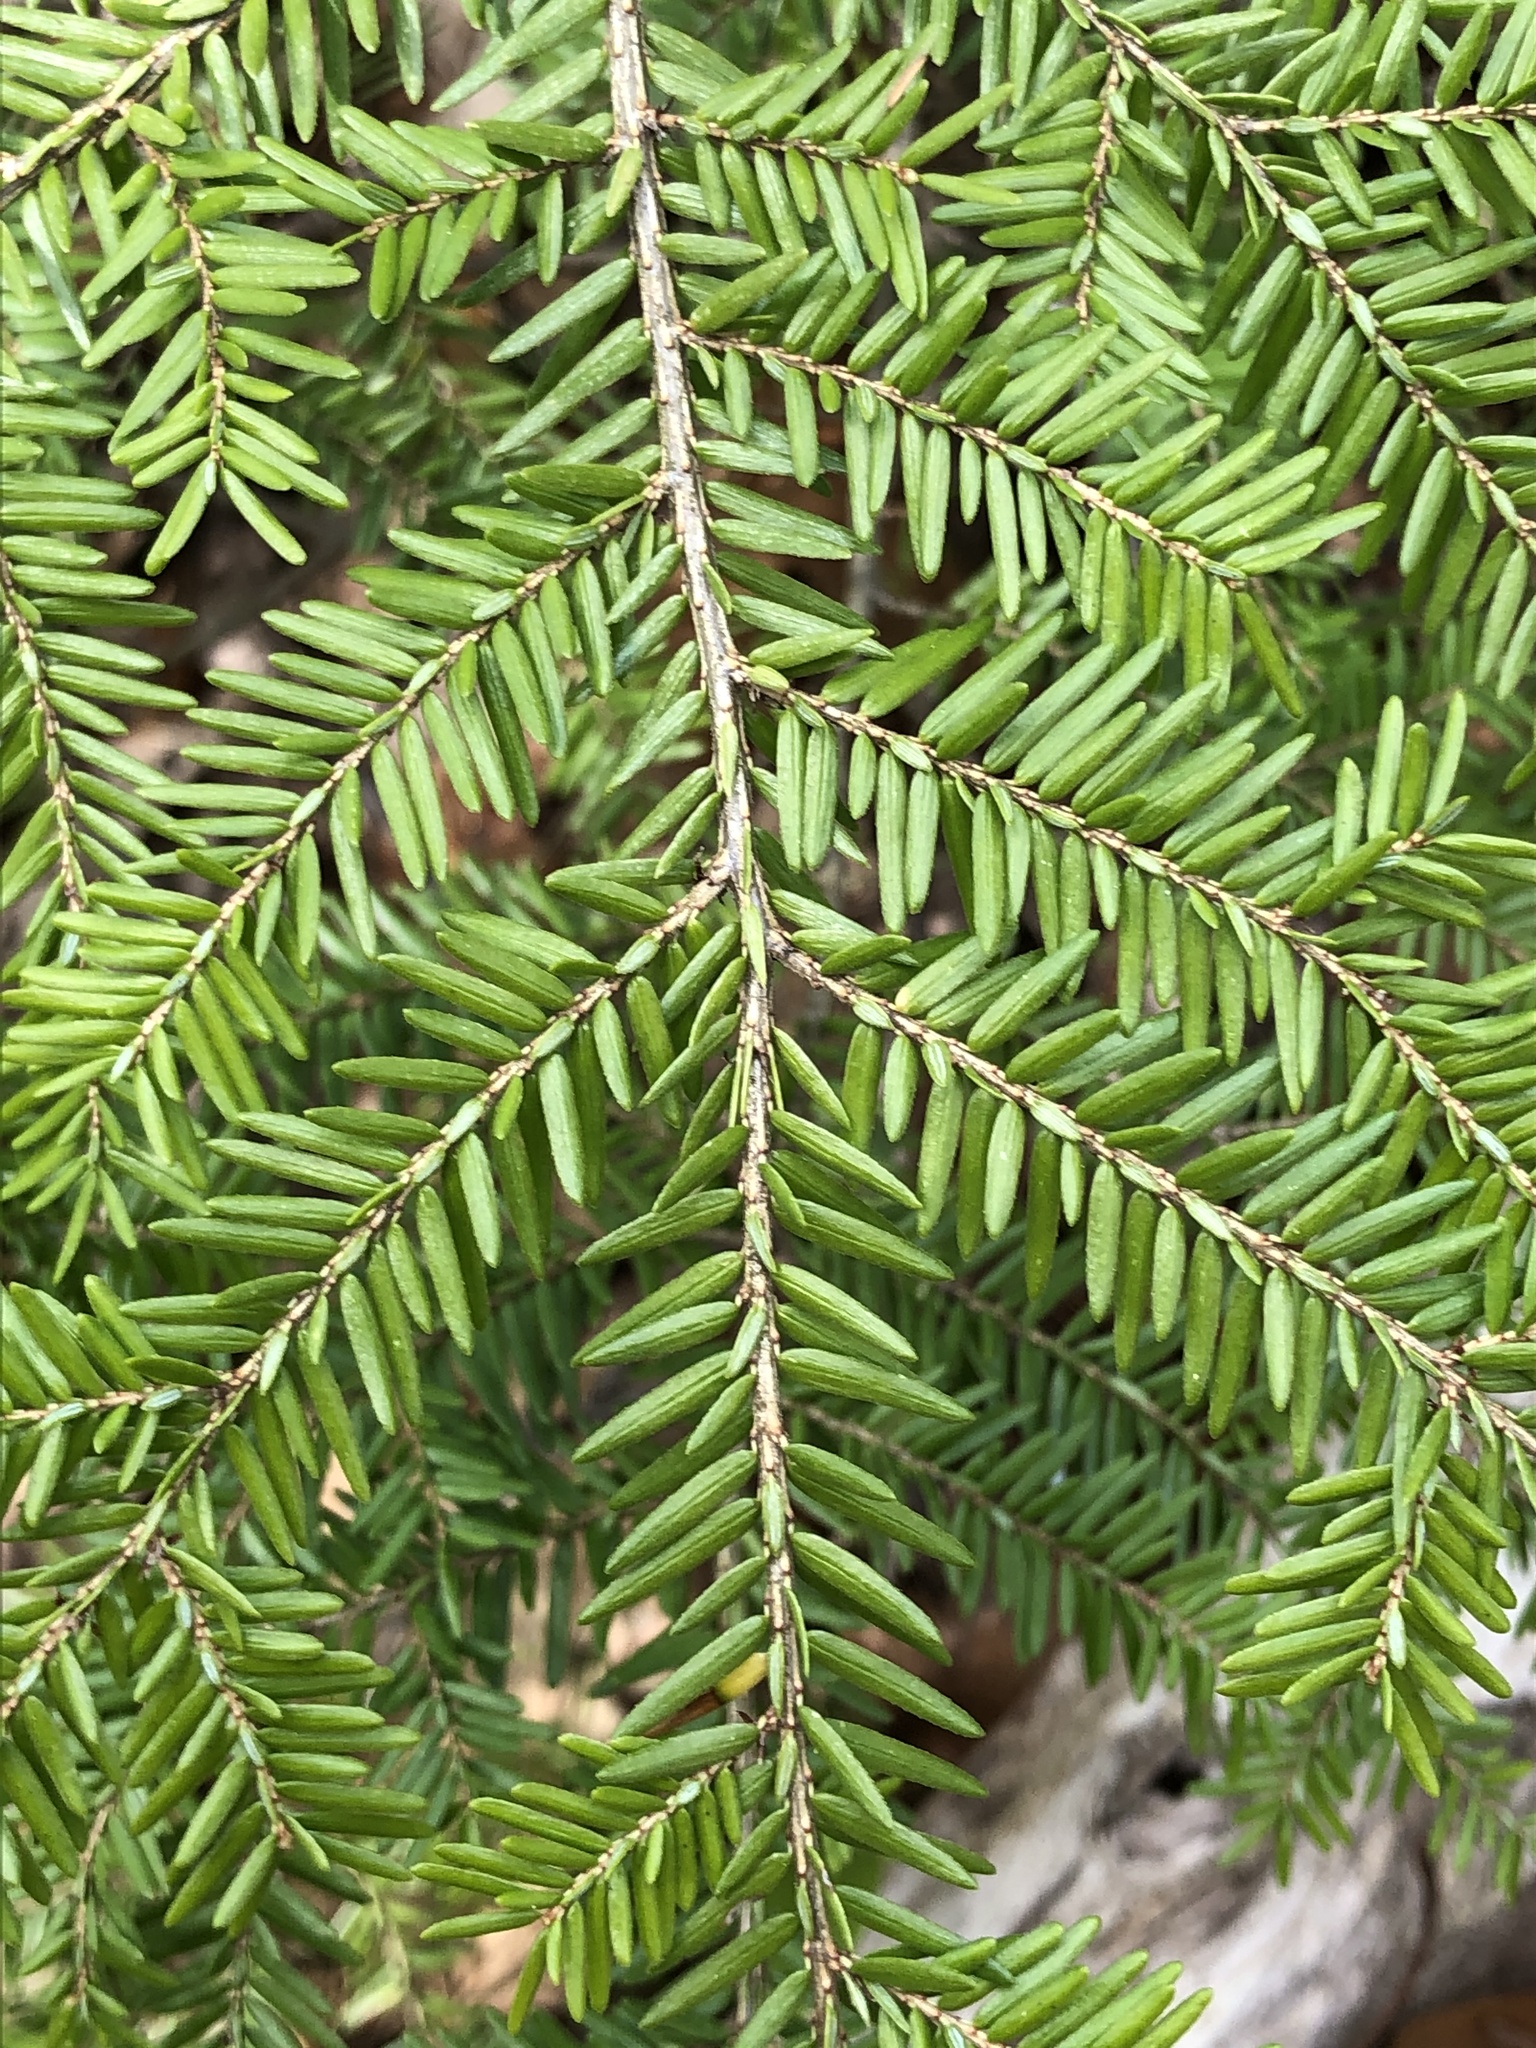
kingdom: Plantae
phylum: Tracheophyta
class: Pinopsida
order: Pinales
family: Pinaceae
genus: Tsuga
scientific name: Tsuga canadensis
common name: Eastern hemlock
